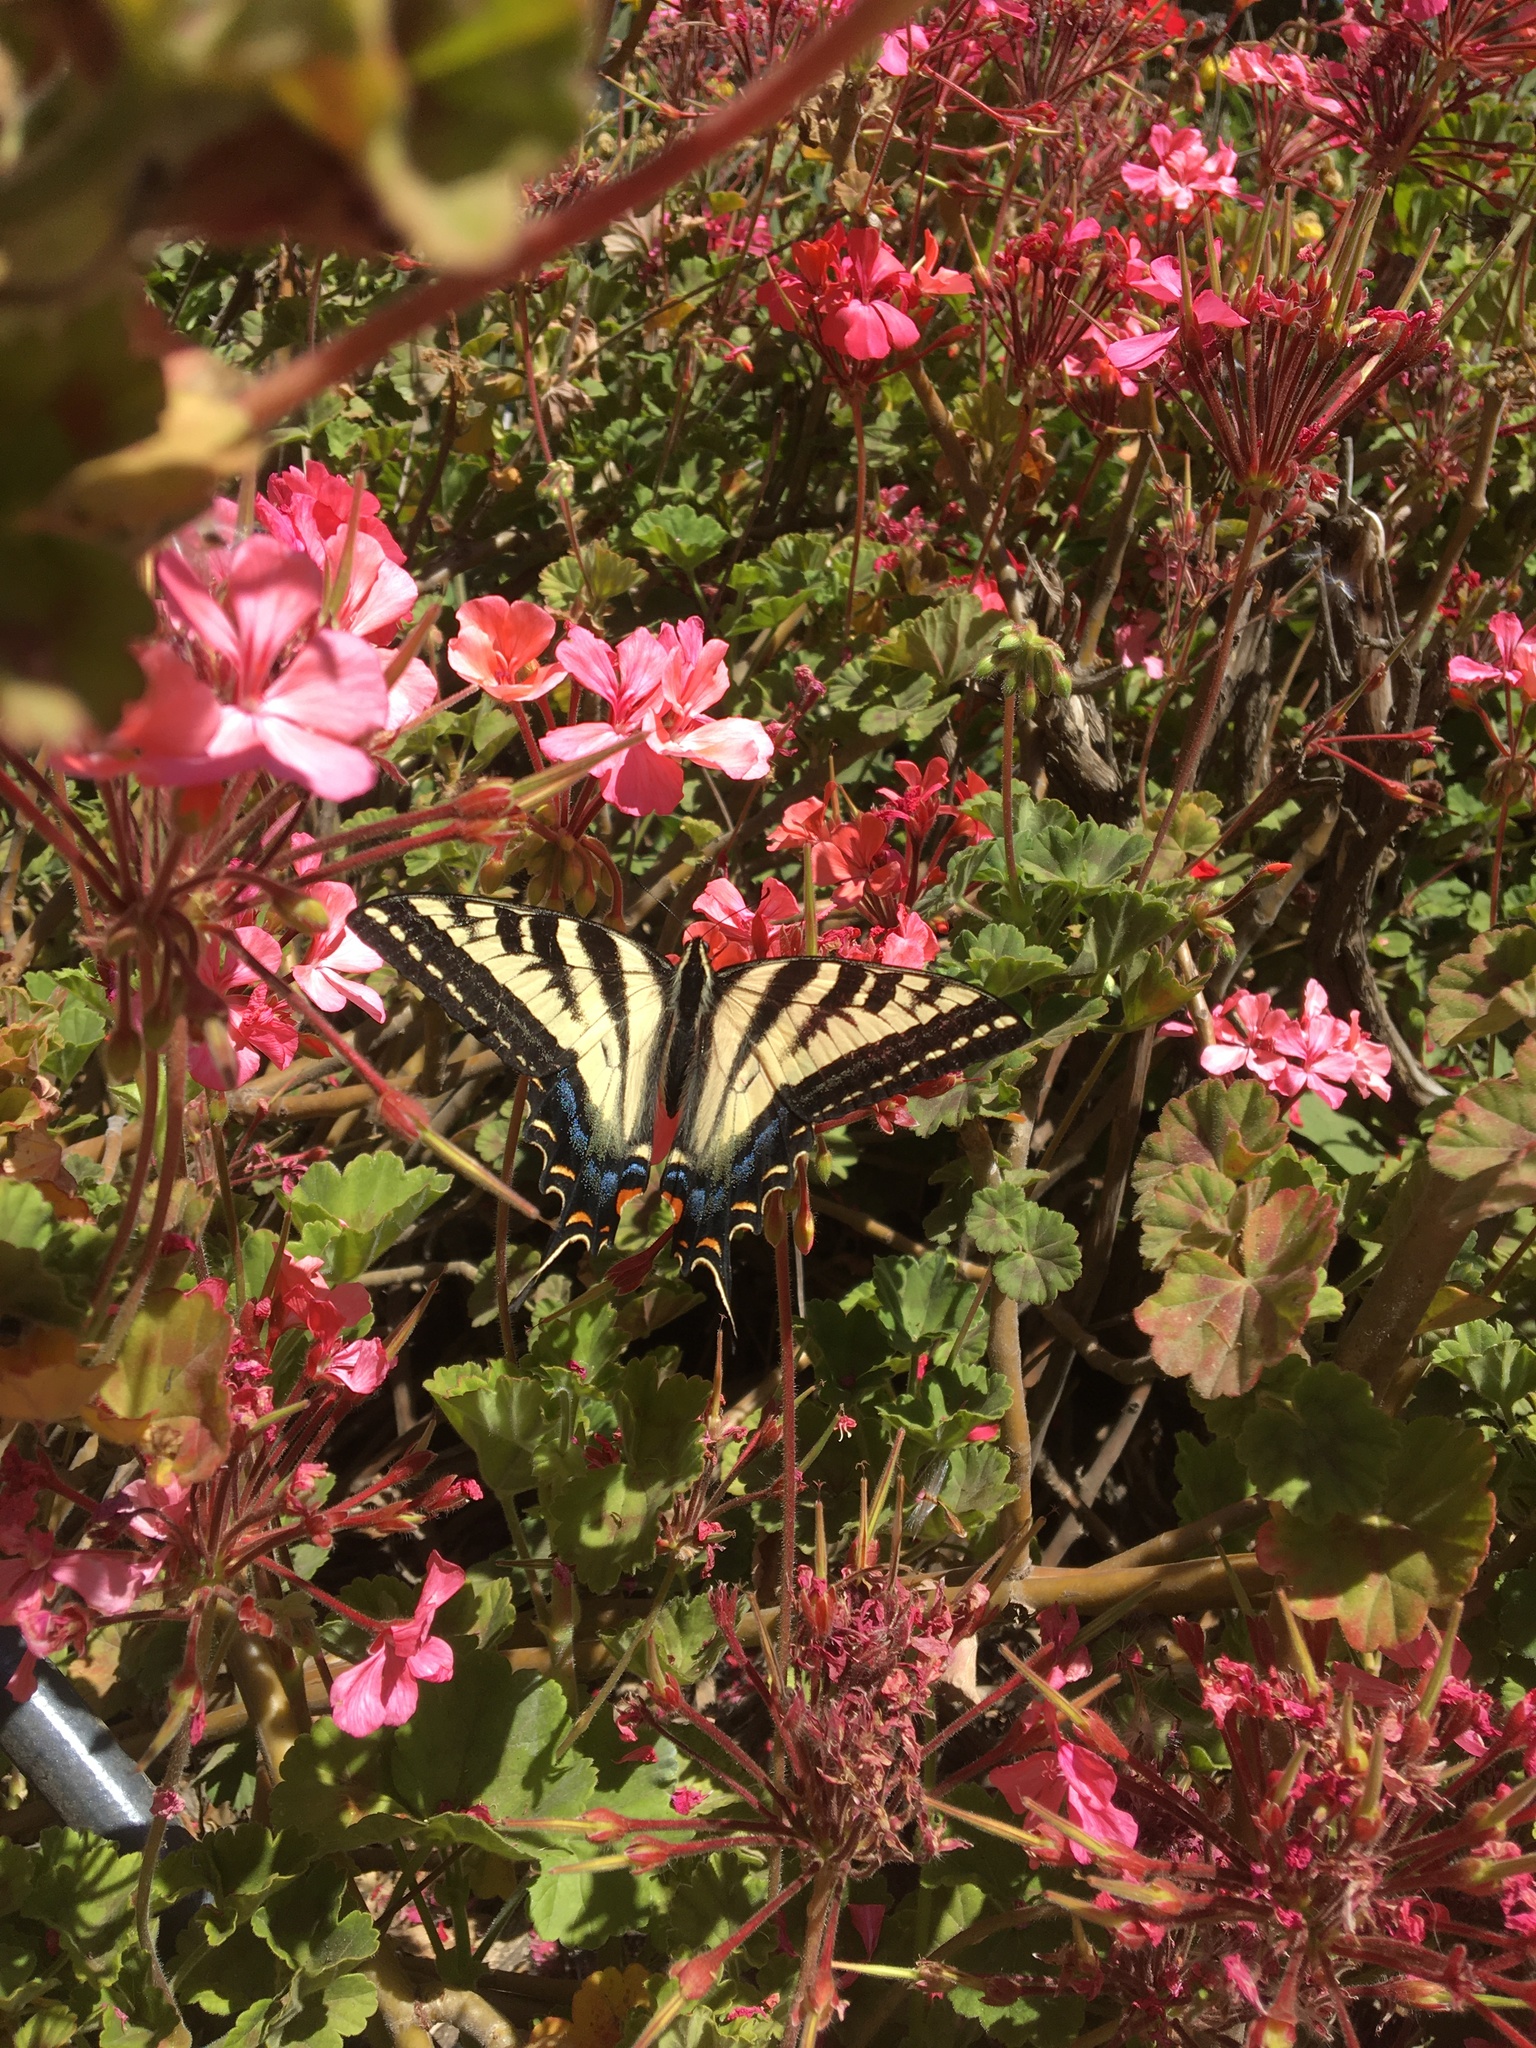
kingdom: Animalia
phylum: Arthropoda
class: Insecta
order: Lepidoptera
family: Papilionidae
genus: Papilio
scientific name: Papilio eurymedon
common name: Pale tiger swallowtail
